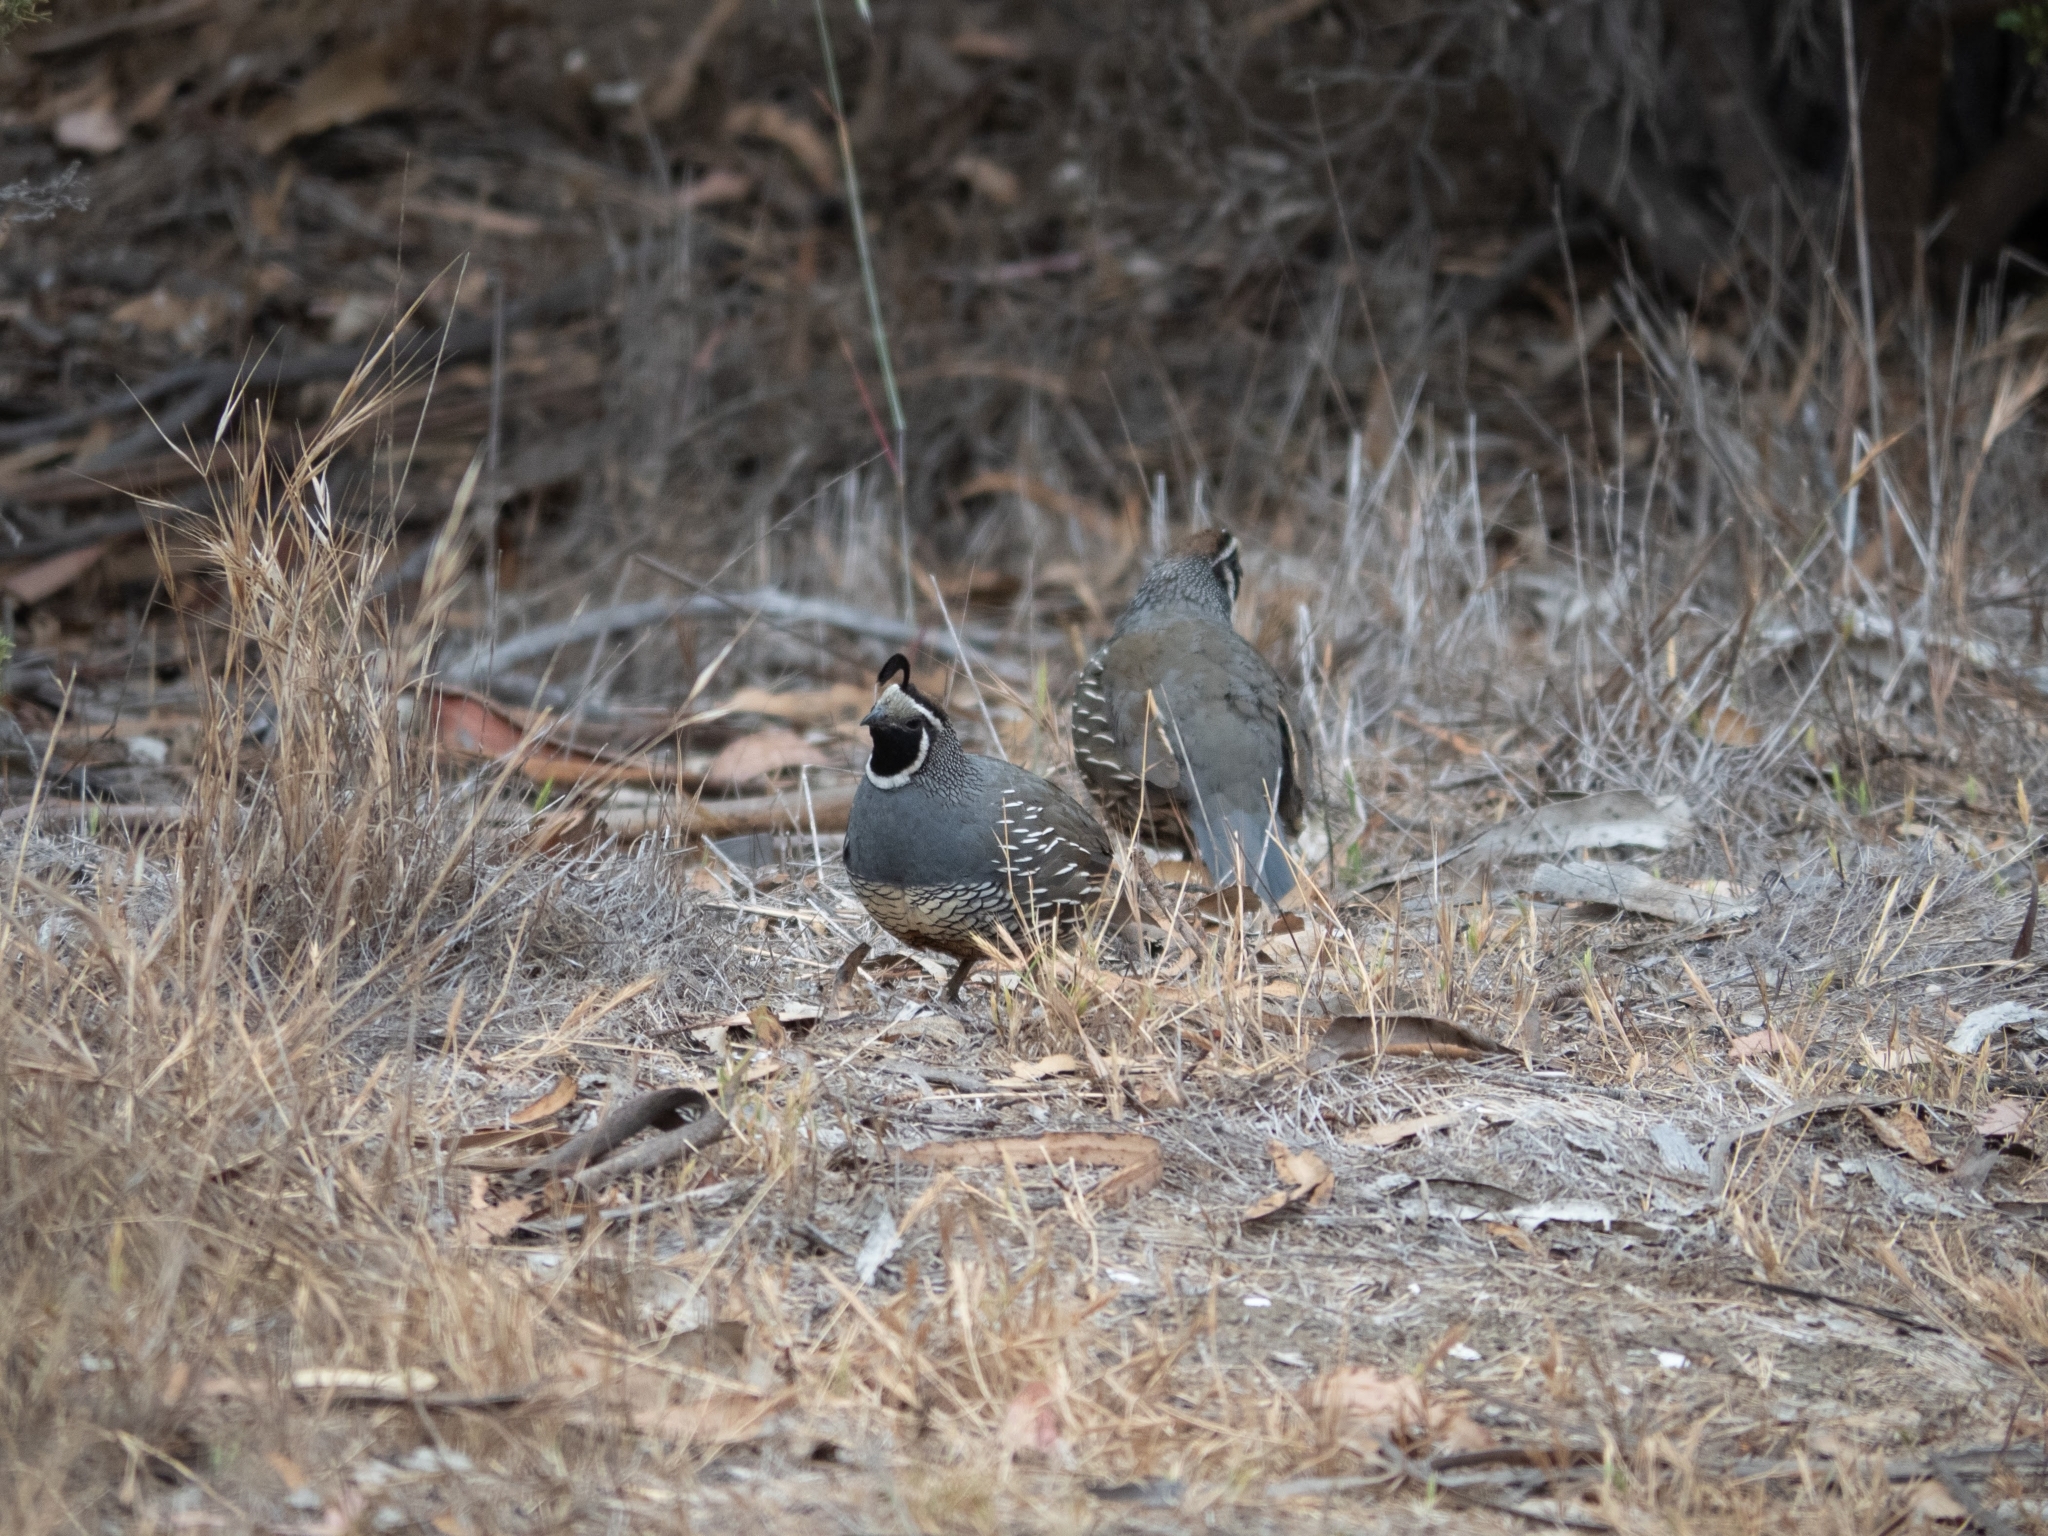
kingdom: Animalia
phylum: Chordata
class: Aves
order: Galliformes
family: Odontophoridae
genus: Callipepla
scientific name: Callipepla californica
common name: California quail
